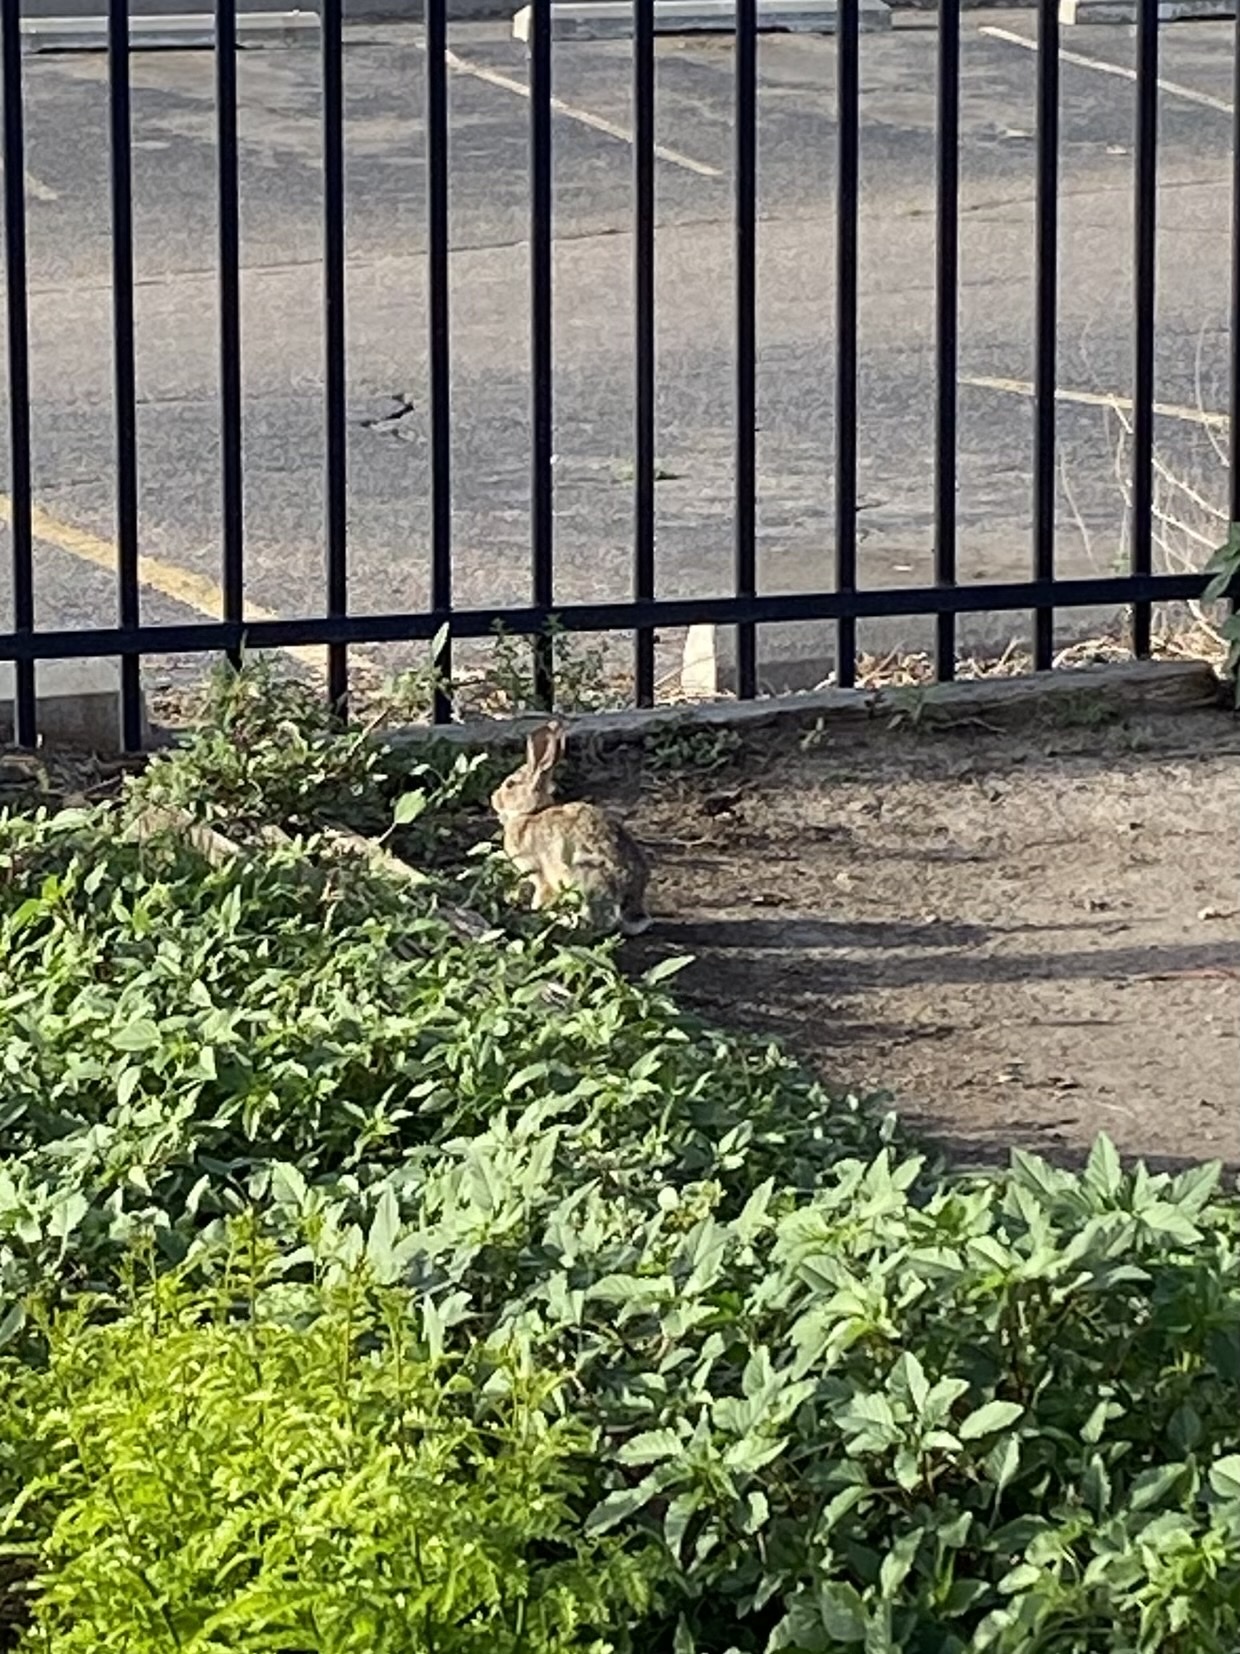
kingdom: Animalia
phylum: Chordata
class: Mammalia
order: Lagomorpha
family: Leporidae
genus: Sylvilagus
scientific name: Sylvilagus audubonii
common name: Desert cottontail
